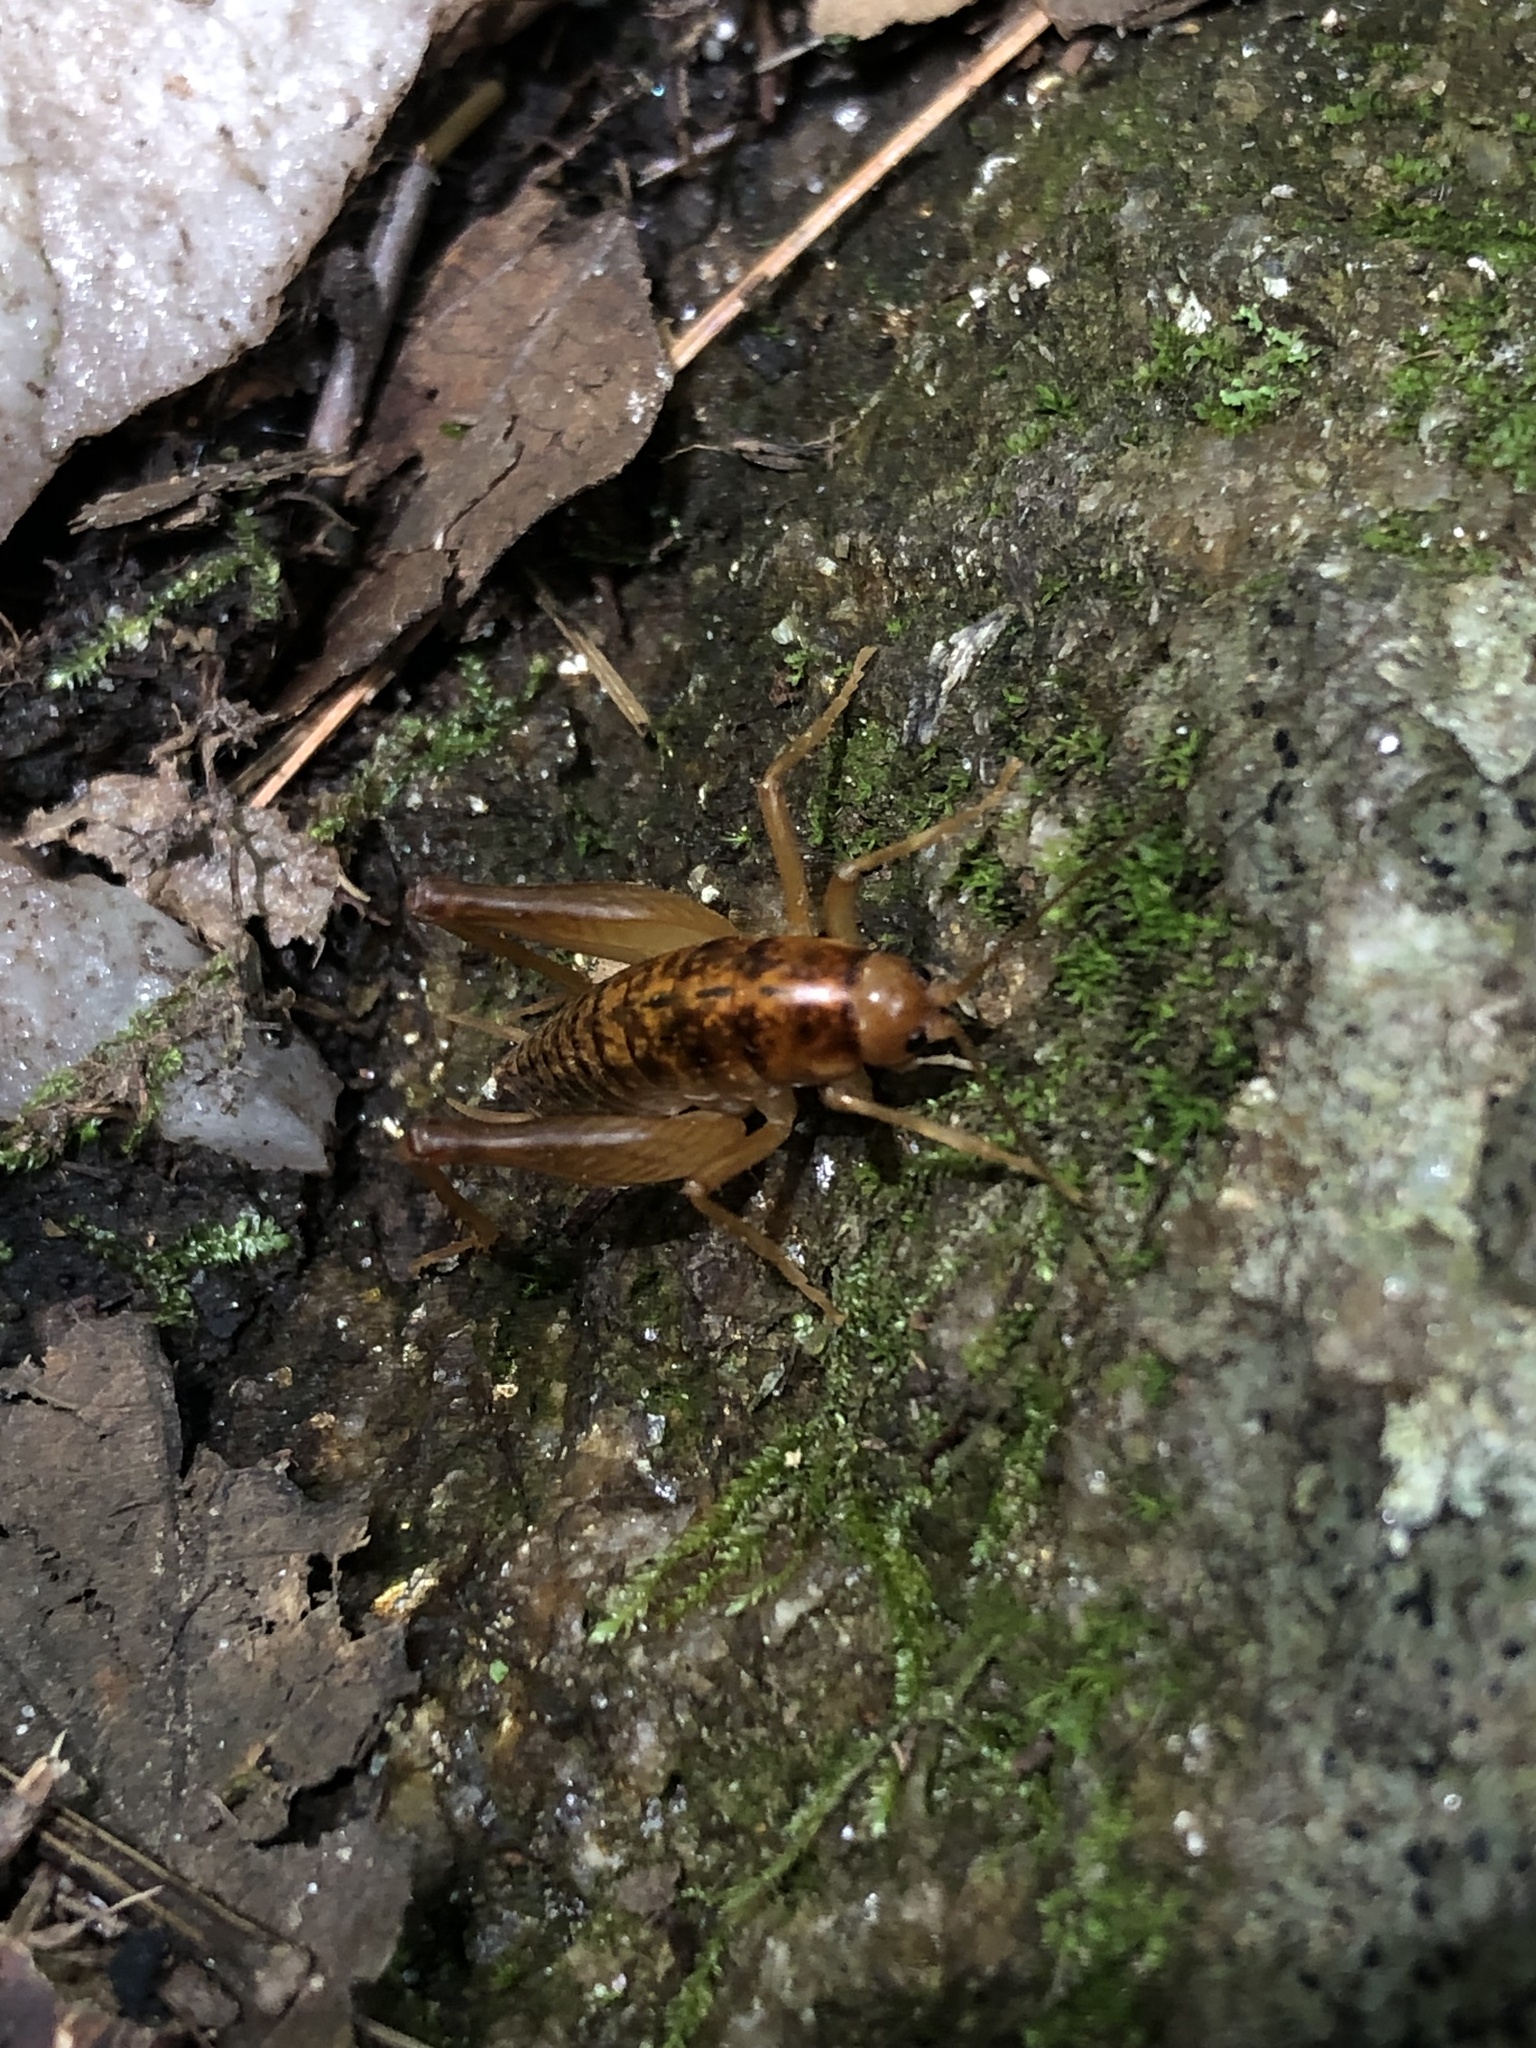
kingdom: Animalia
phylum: Arthropoda
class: Insecta
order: Orthoptera
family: Rhaphidophoridae
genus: Ceuthophilus
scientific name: Ceuthophilus
